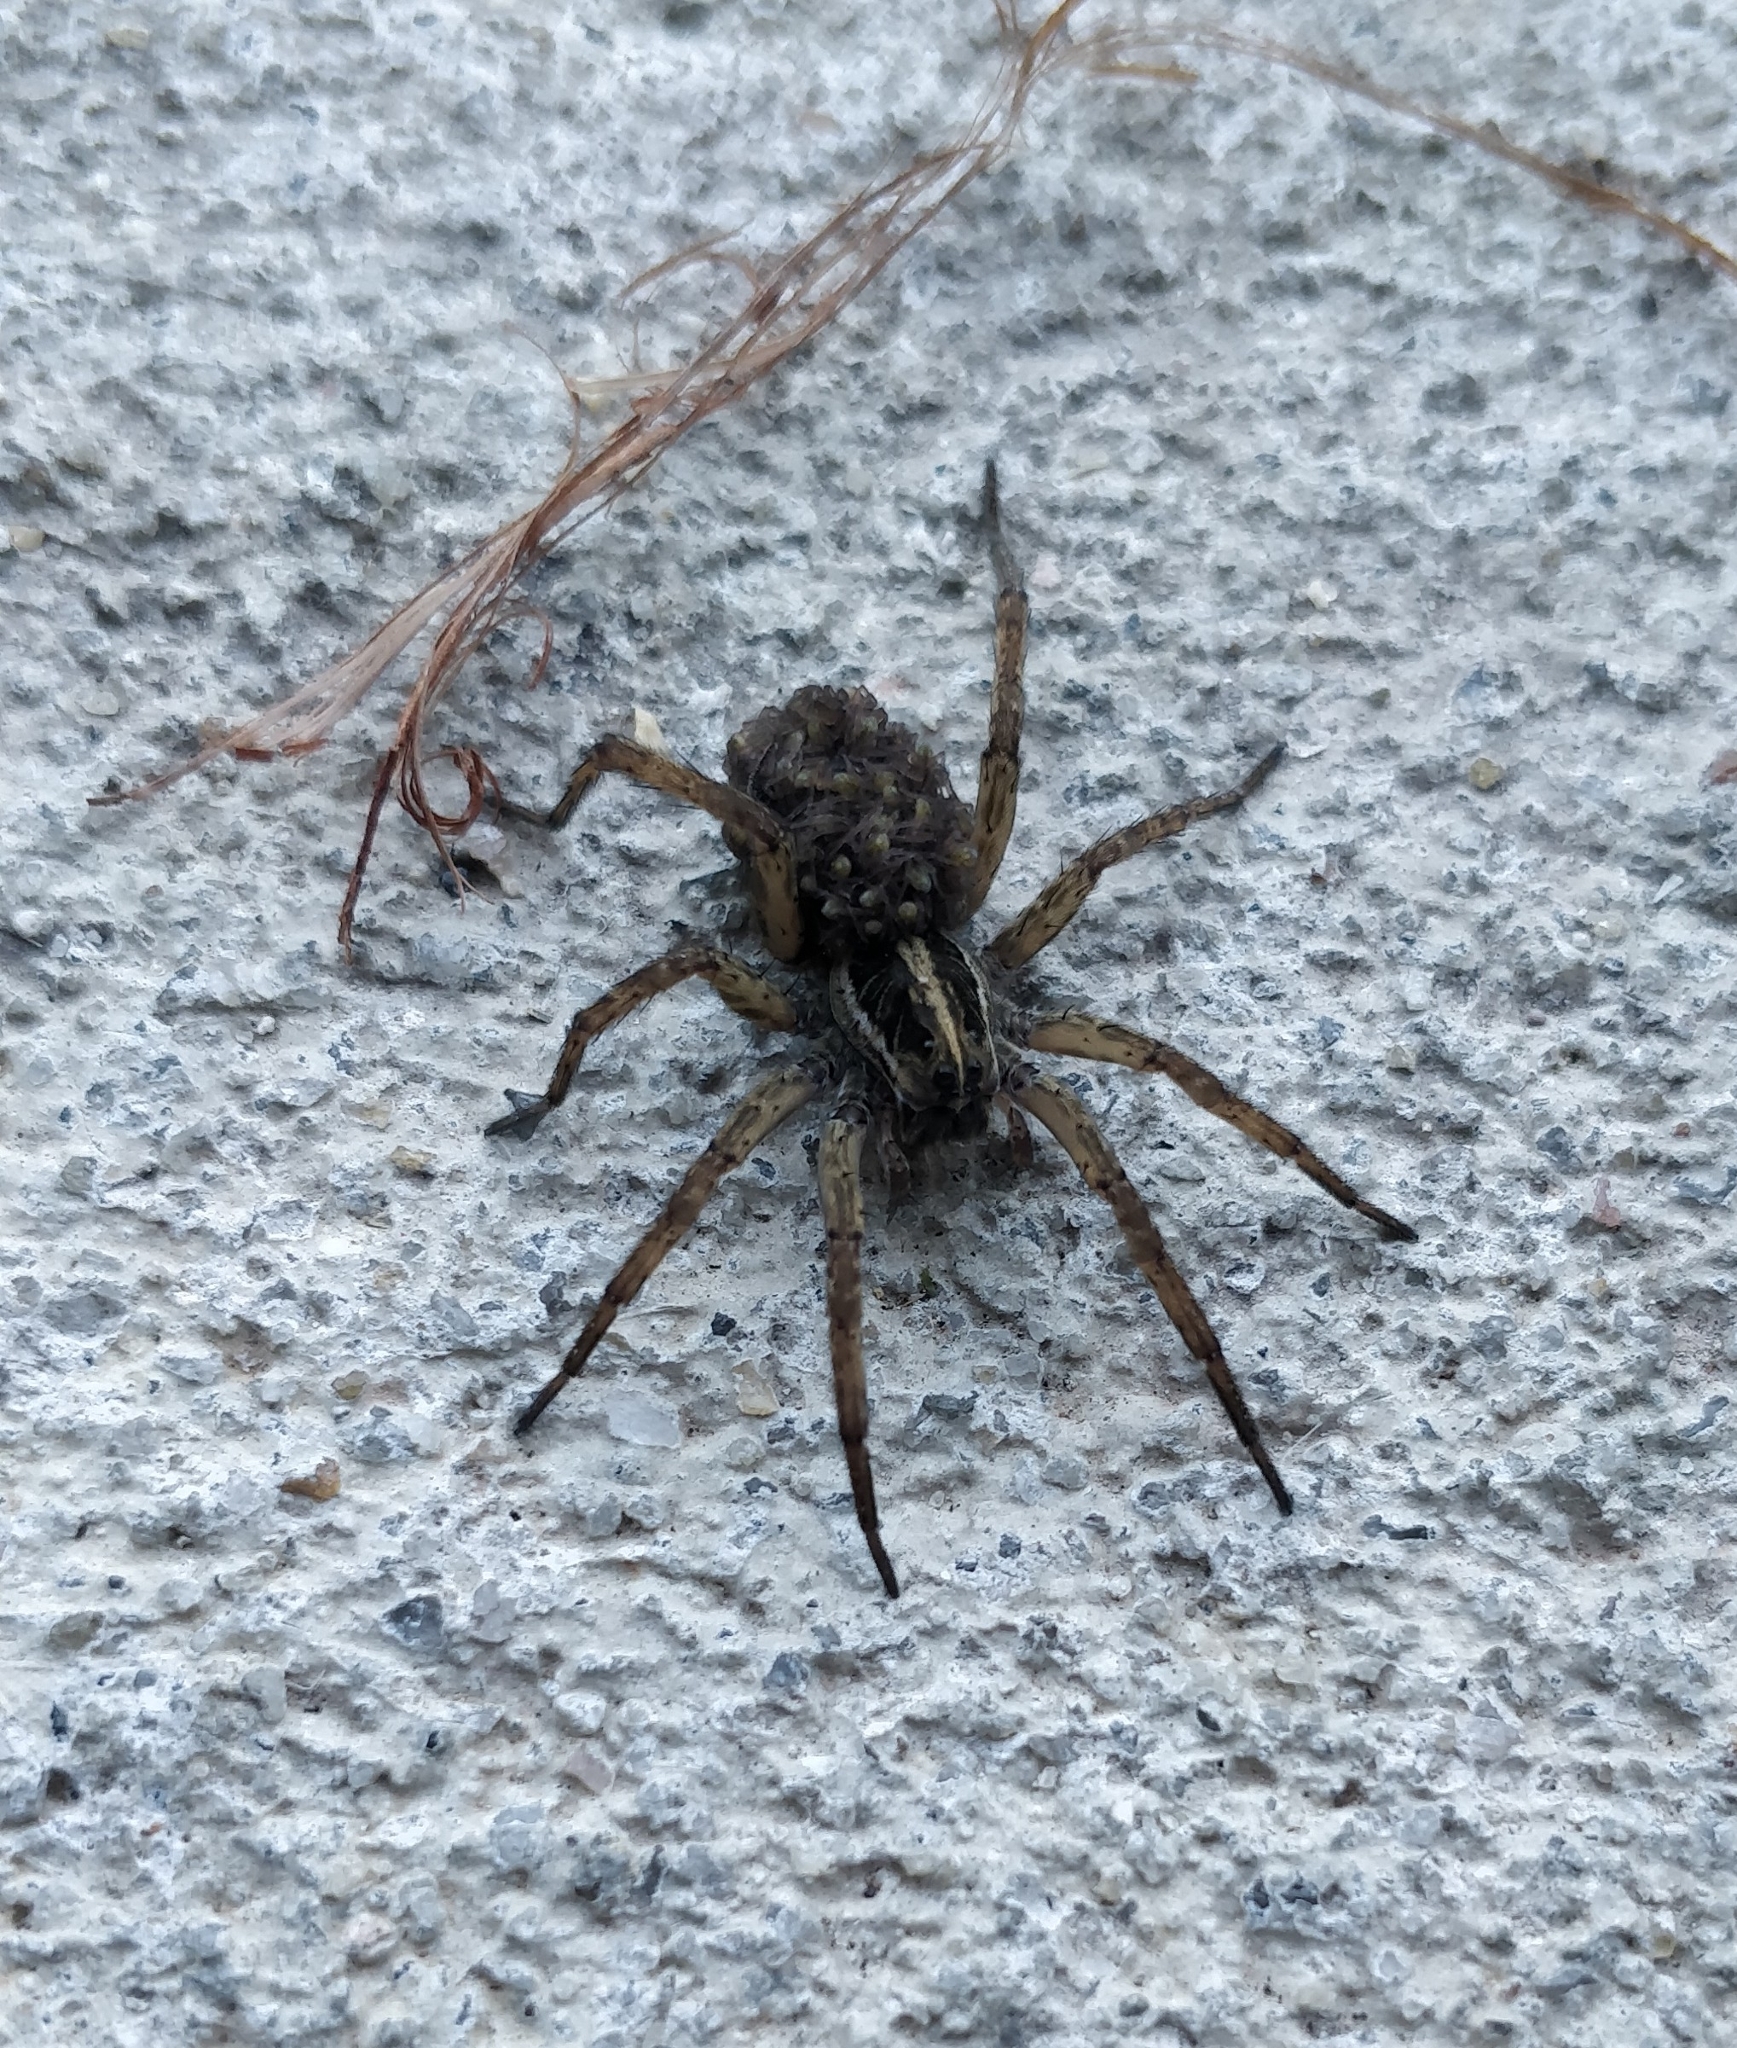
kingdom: Animalia
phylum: Arthropoda
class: Arachnida
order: Araneae
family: Lycosidae
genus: Tigrosa
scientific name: Tigrosa annexa
